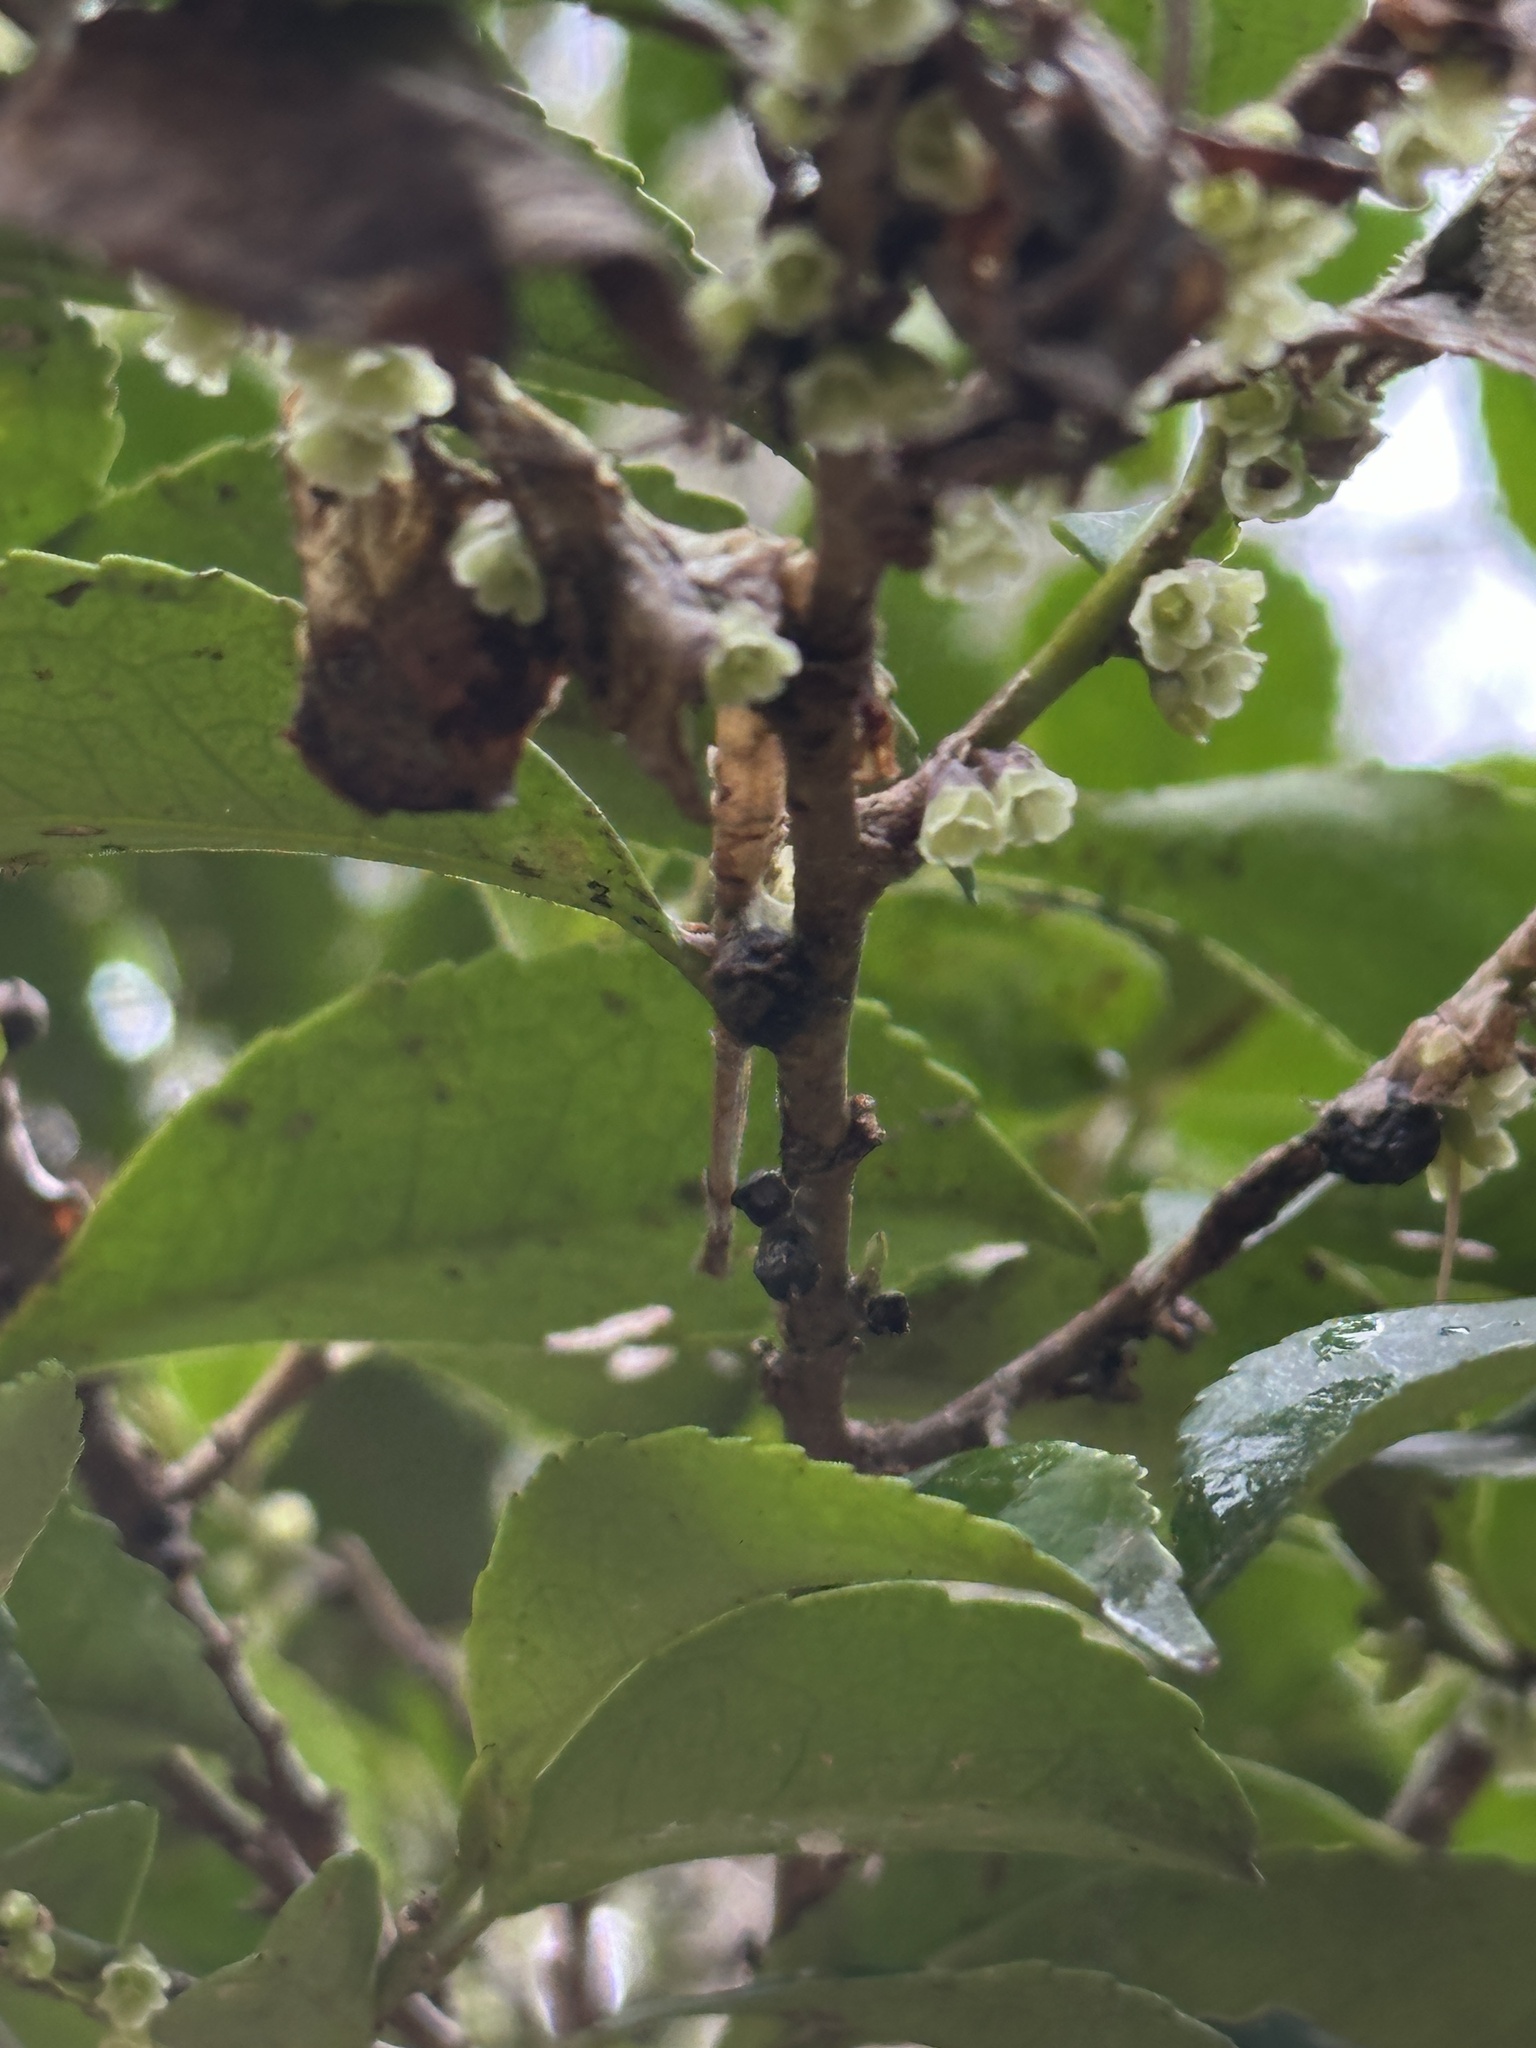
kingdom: Plantae
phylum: Tracheophyta
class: Magnoliopsida
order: Ericales
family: Pentaphylacaceae
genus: Eurya
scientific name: Eurya japonica
